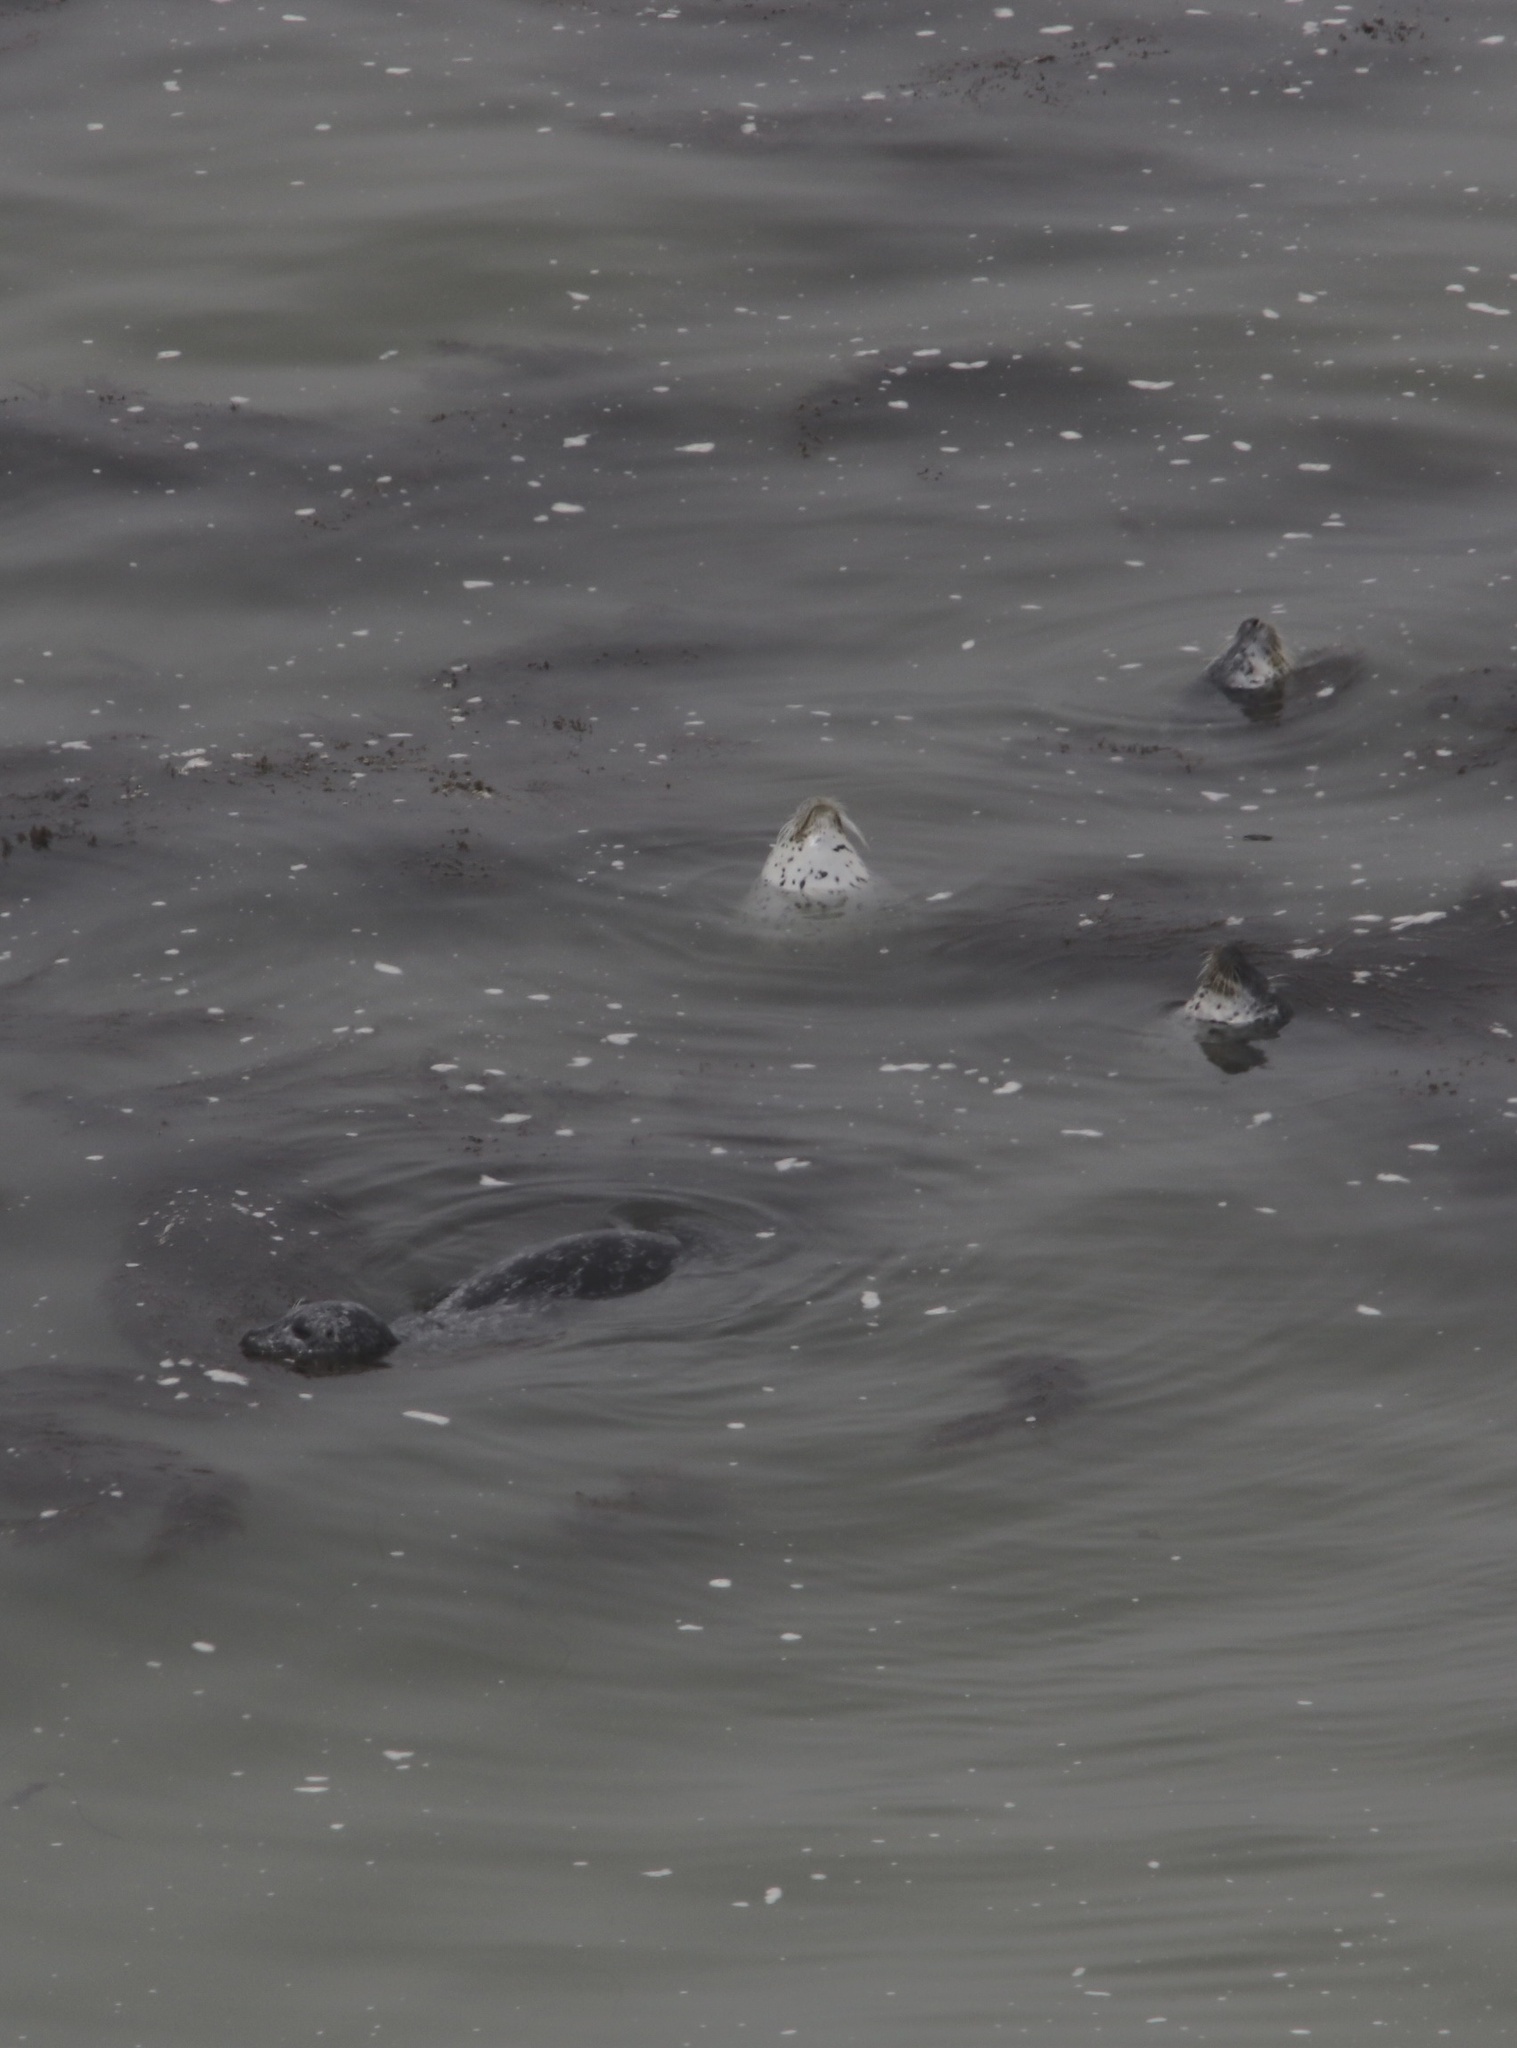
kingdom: Animalia
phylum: Chordata
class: Mammalia
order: Carnivora
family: Phocidae
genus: Phoca
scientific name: Phoca vitulina
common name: Harbor seal
